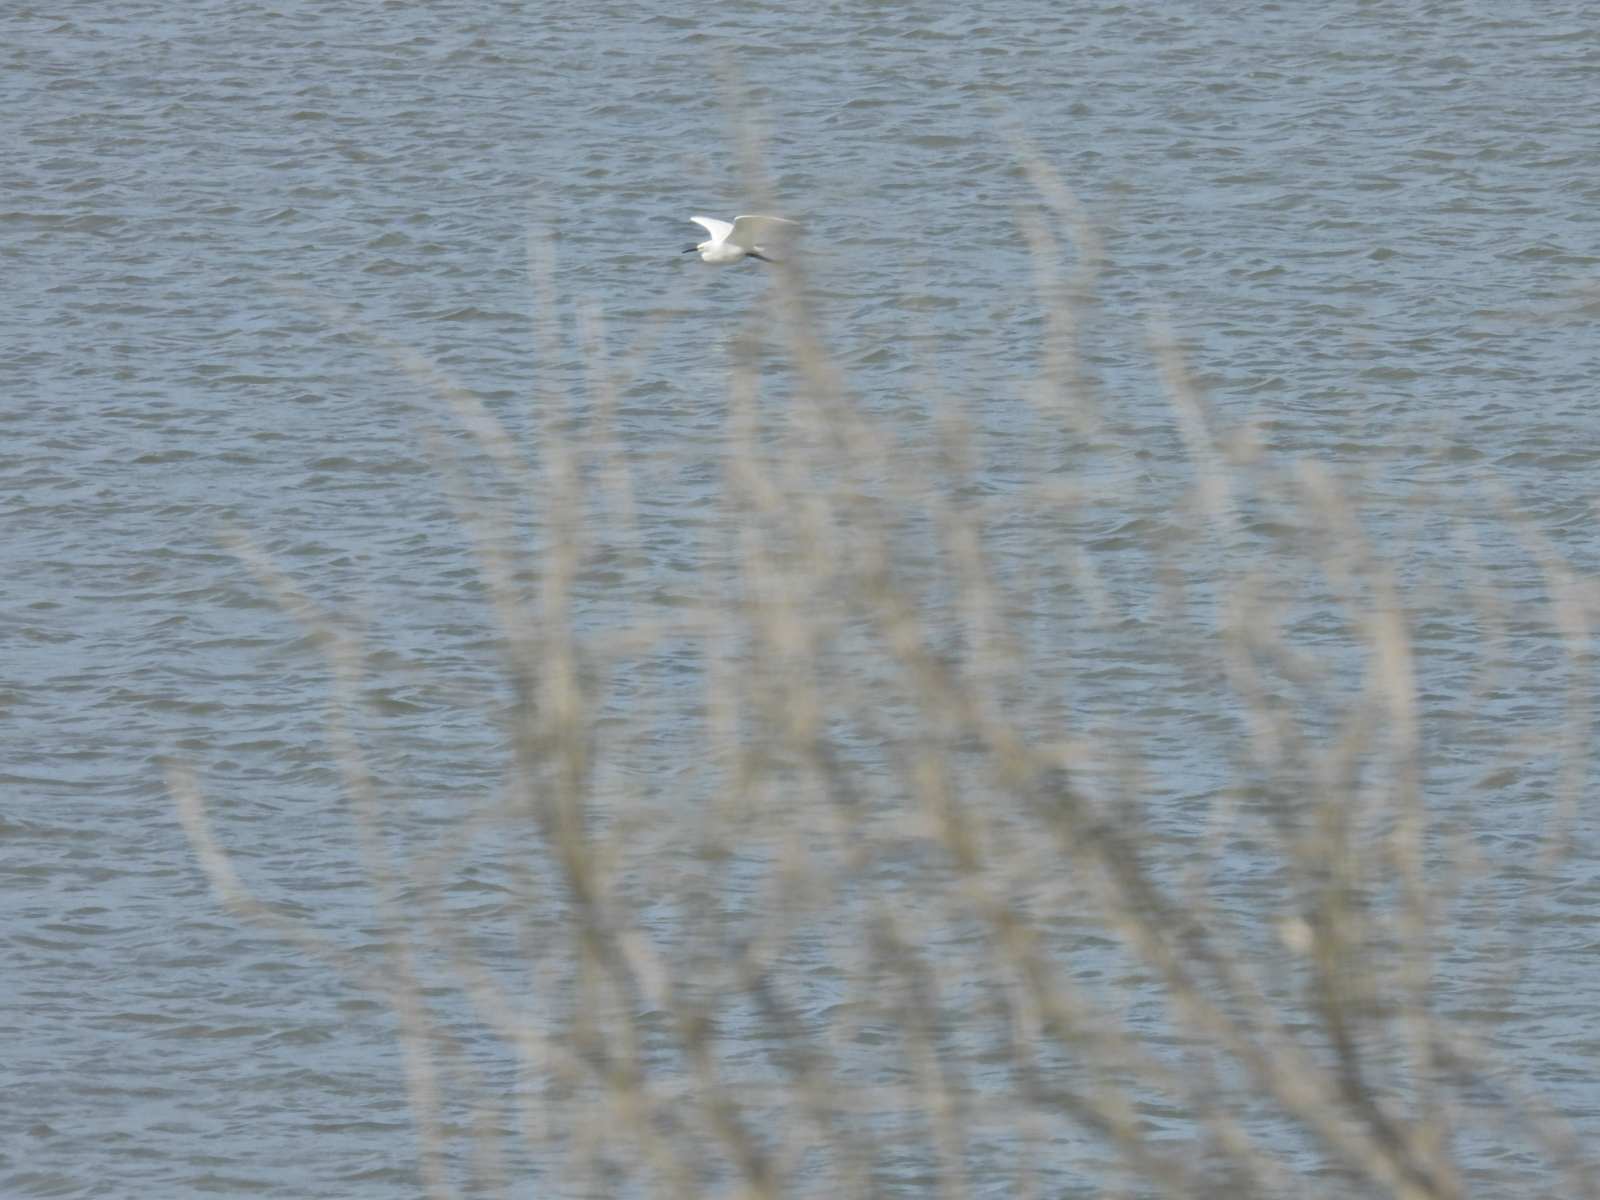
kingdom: Animalia
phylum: Chordata
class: Aves
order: Pelecaniformes
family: Ardeidae
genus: Egretta
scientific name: Egretta thula
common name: Snowy egret
